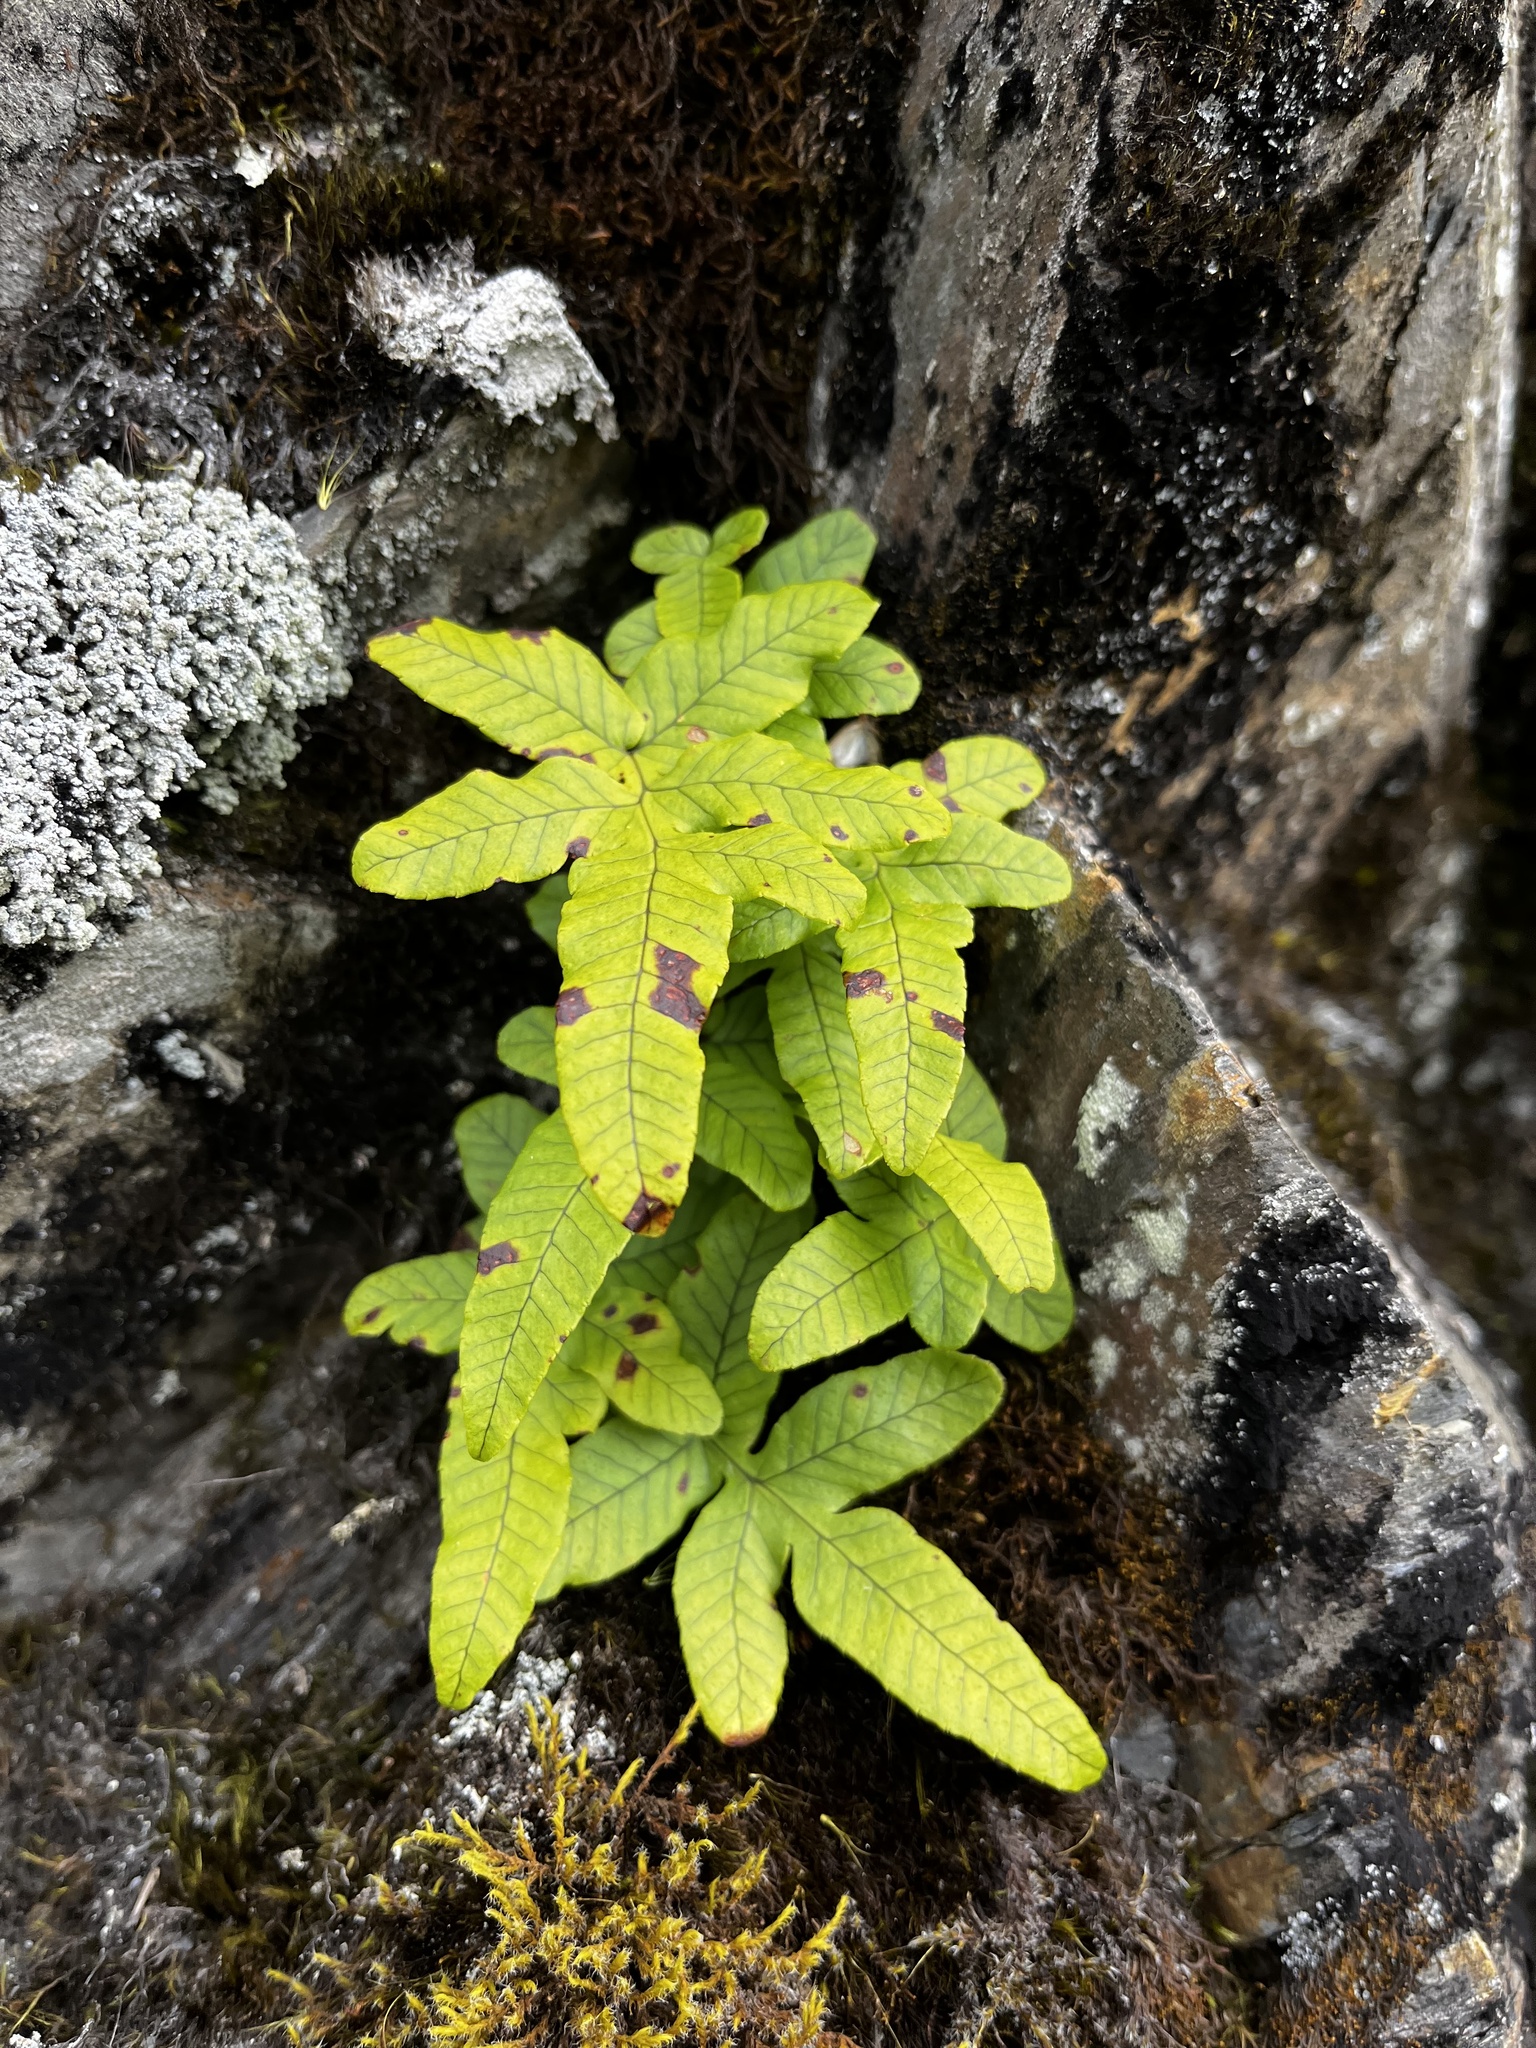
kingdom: Plantae
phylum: Tracheophyta
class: Polypodiopsida
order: Polypodiales
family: Polypodiaceae
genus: Selliguea
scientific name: Selliguea quasidivaricata
